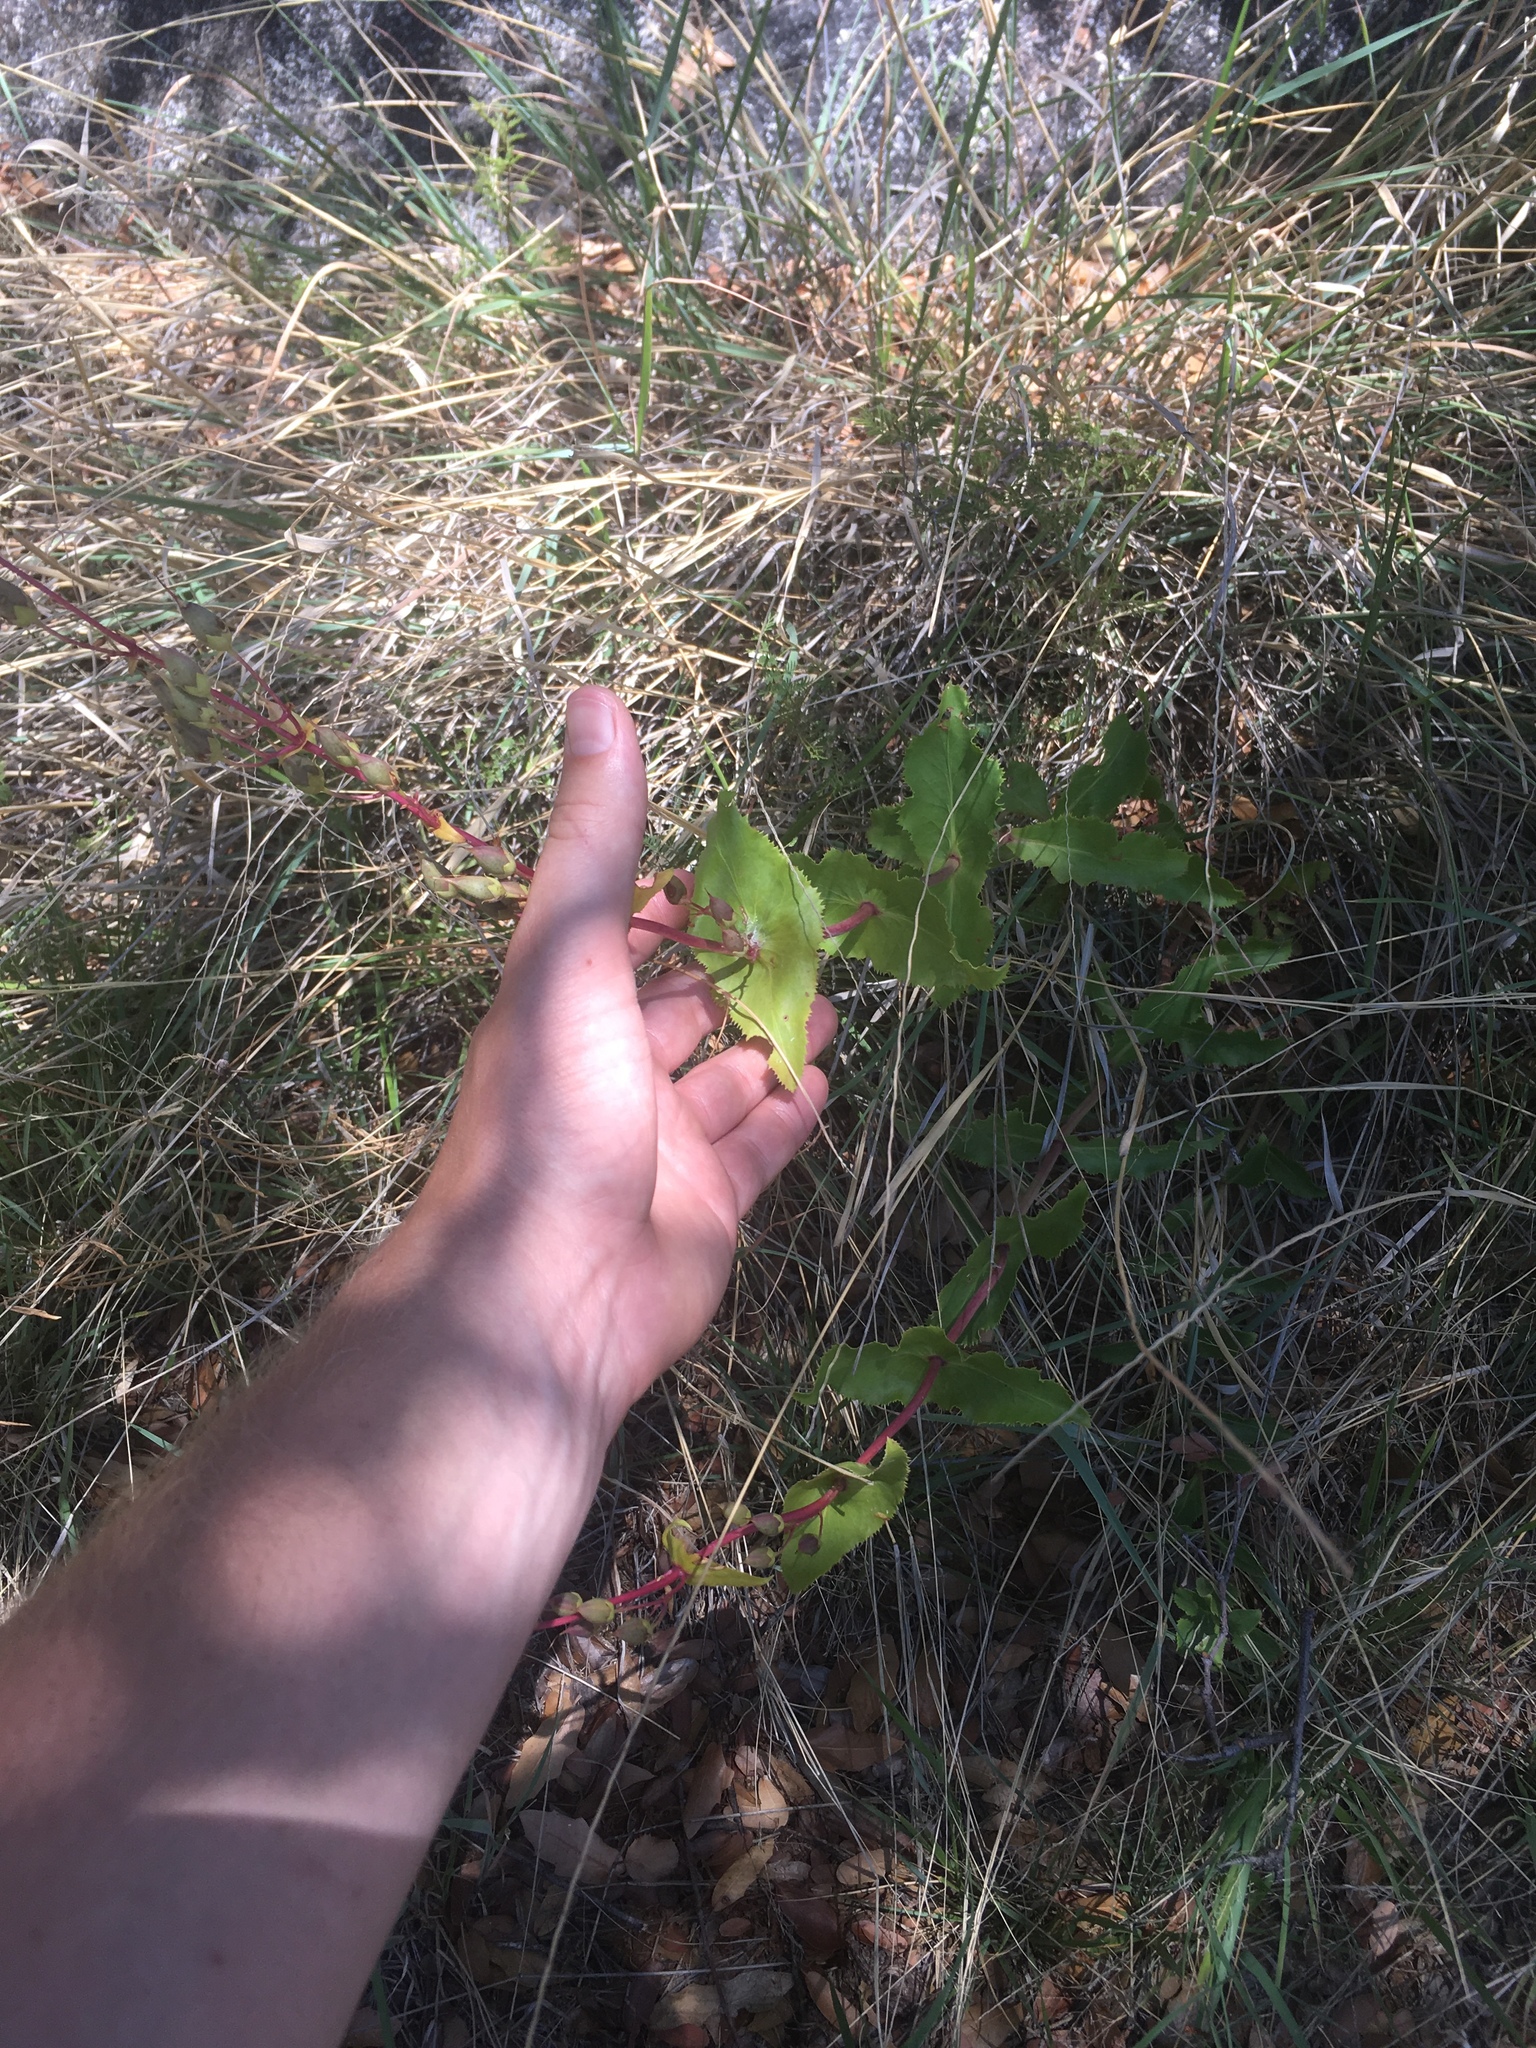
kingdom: Plantae
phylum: Tracheophyta
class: Magnoliopsida
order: Lamiales
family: Plantaginaceae
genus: Penstemon
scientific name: Penstemon pseudospectabilis
